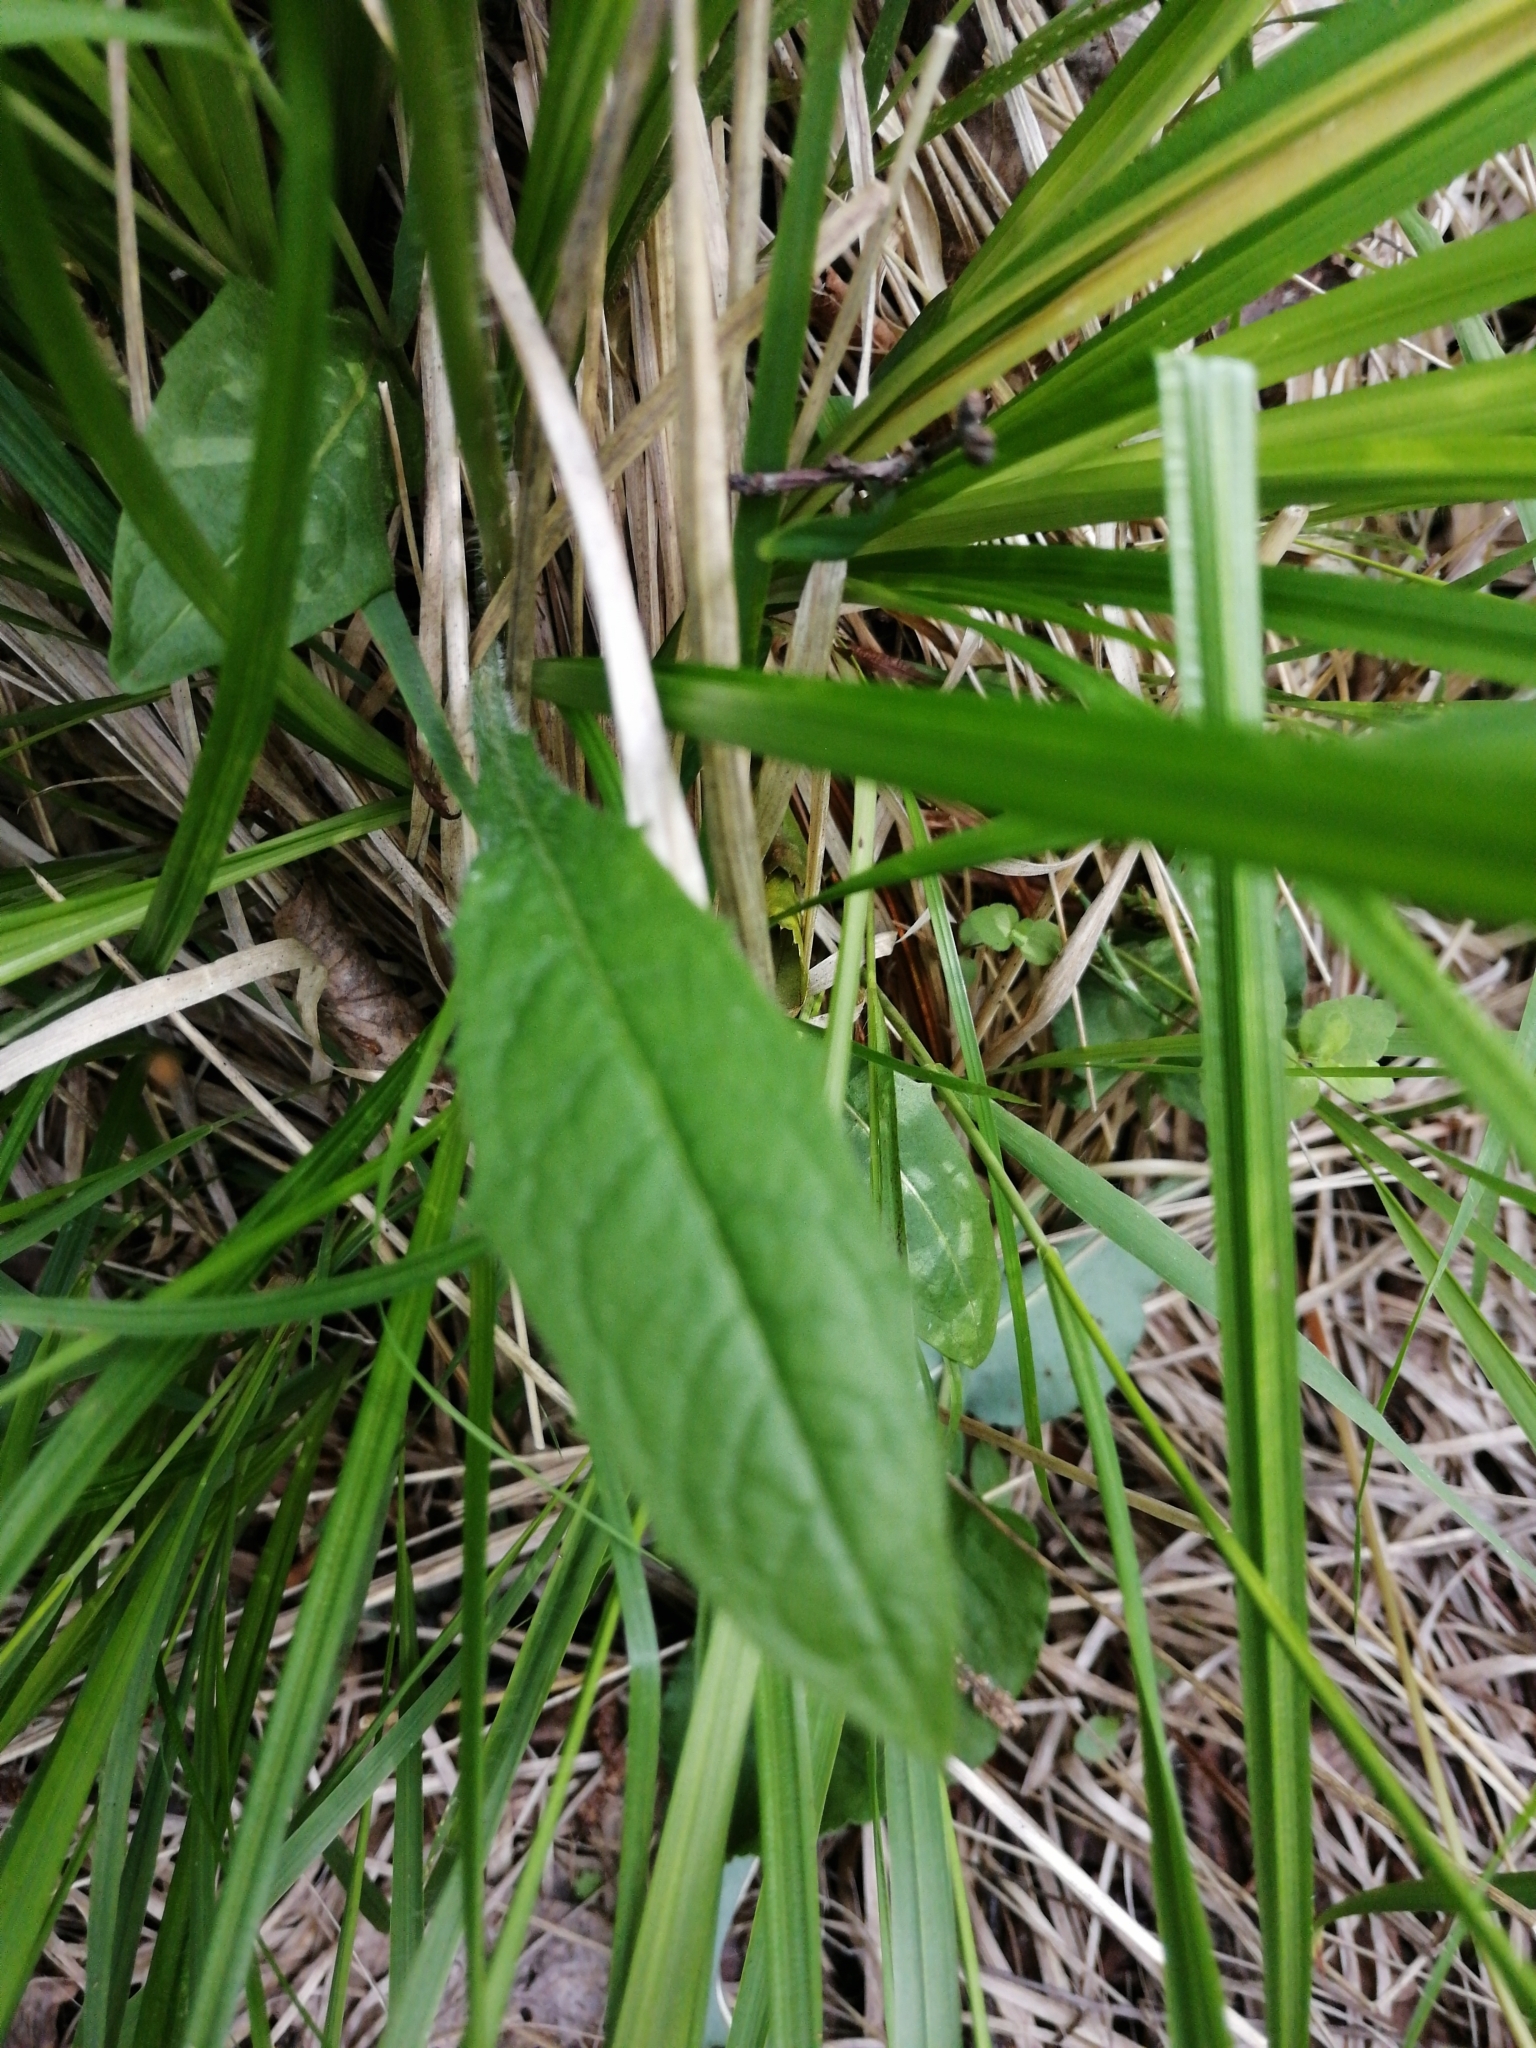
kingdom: Plantae
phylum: Tracheophyta
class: Magnoliopsida
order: Asterales
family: Asteraceae
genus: Crepis
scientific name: Crepis mollis
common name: Northern hawk's-beard
